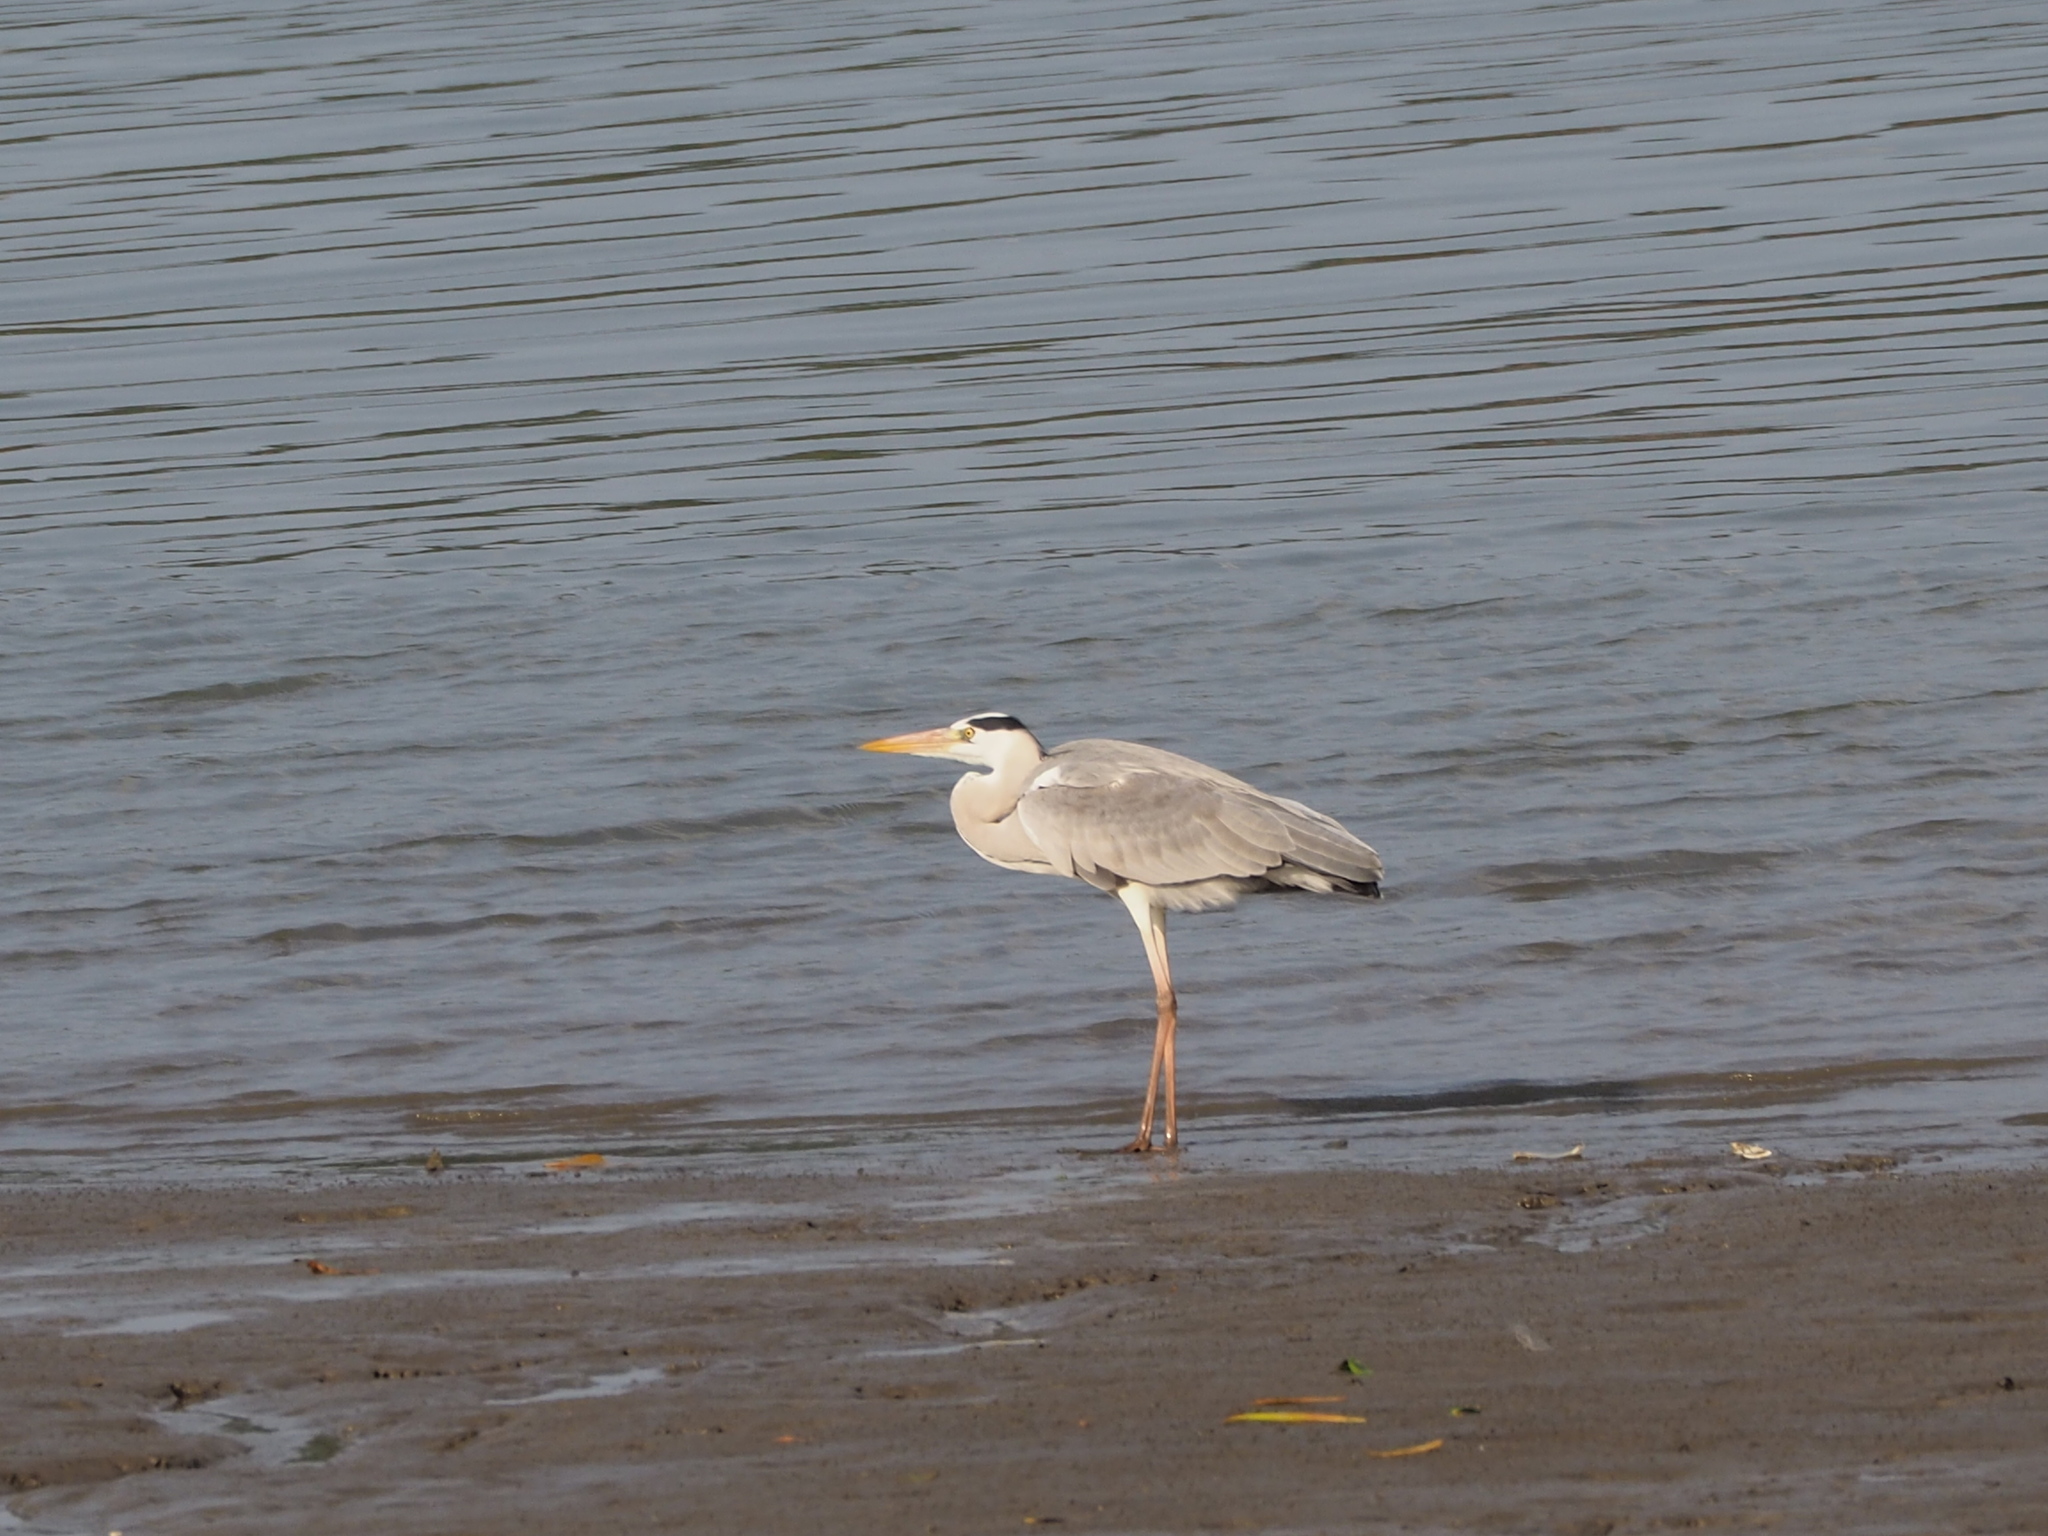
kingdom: Animalia
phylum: Chordata
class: Aves
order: Pelecaniformes
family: Ardeidae
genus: Ardea
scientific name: Ardea cinerea
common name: Grey heron
